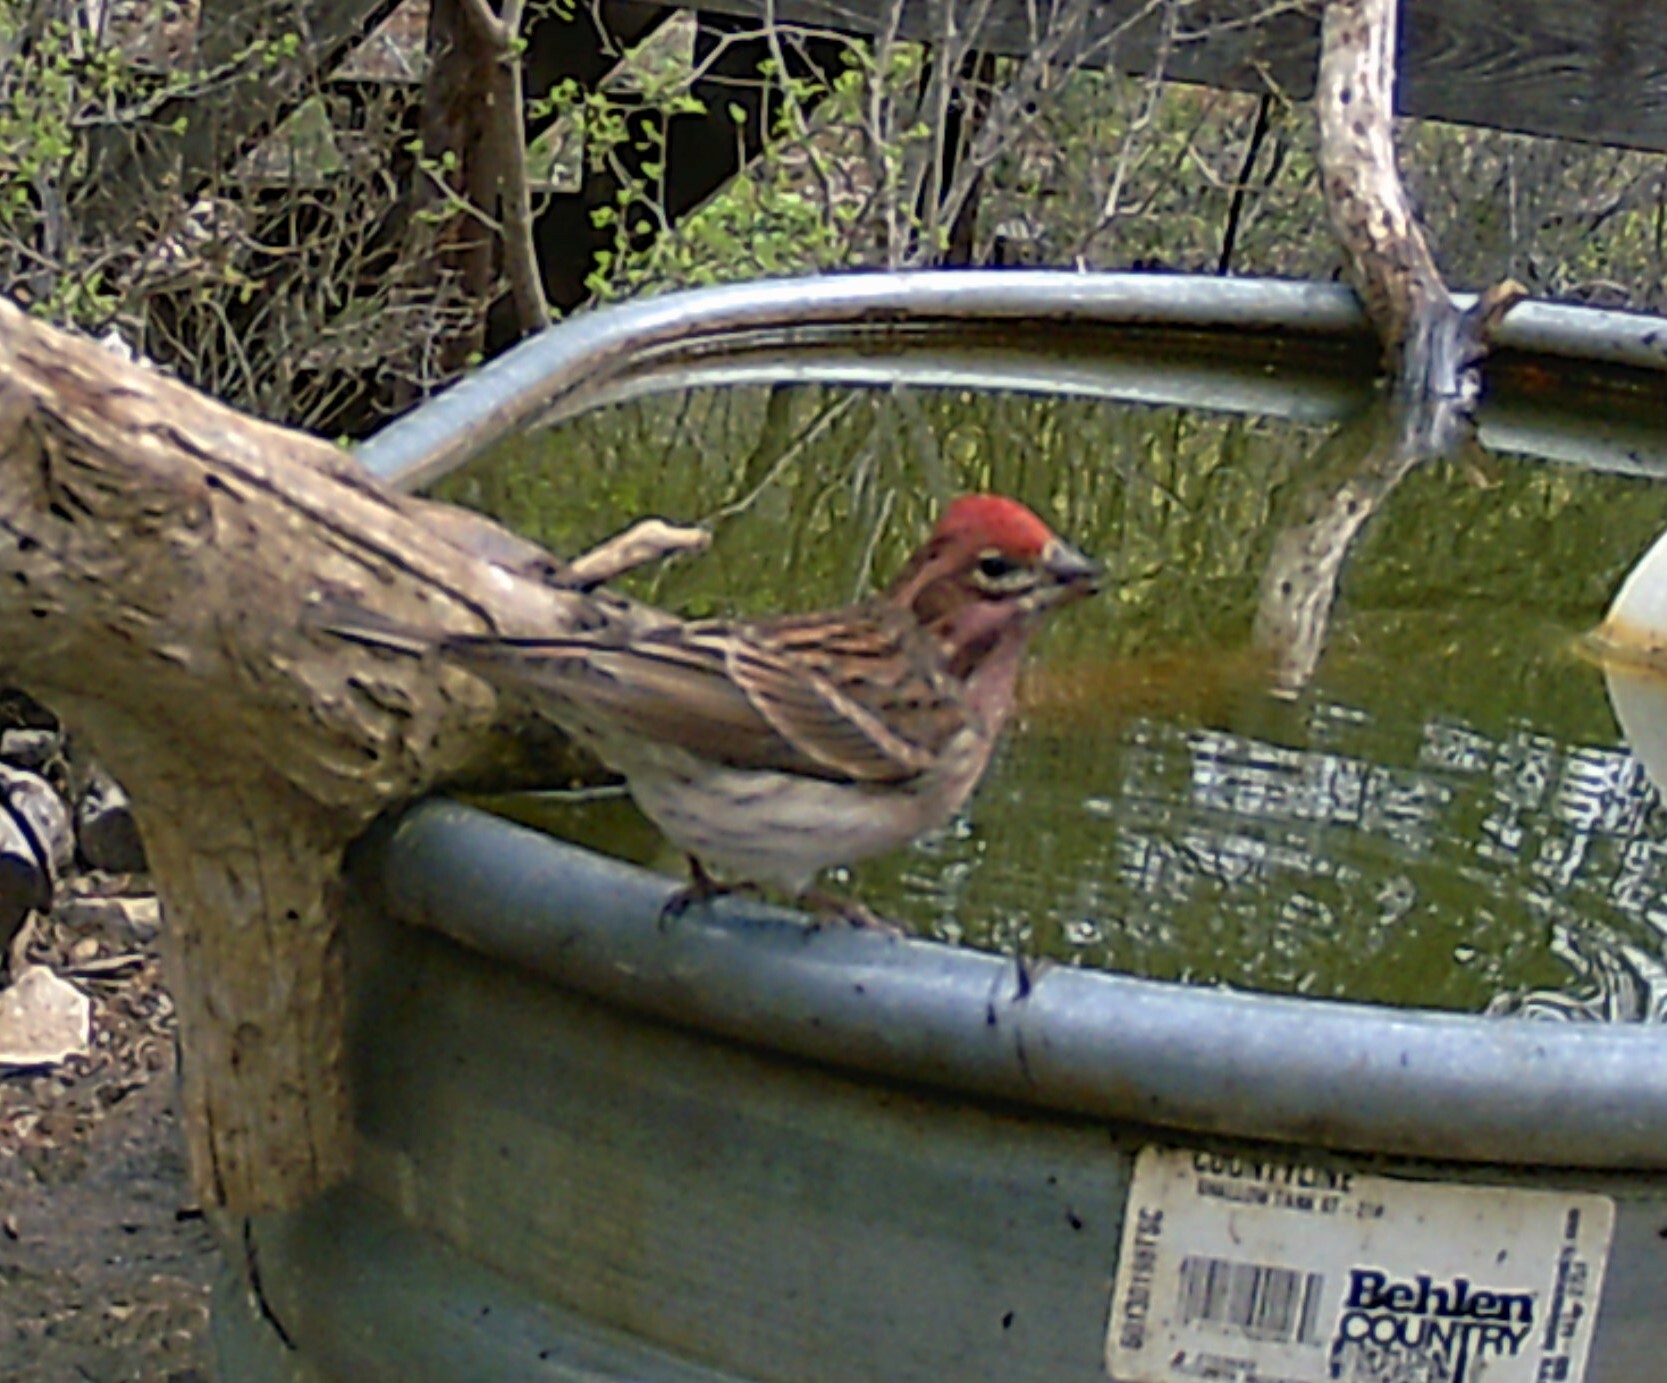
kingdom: Animalia
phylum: Chordata
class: Aves
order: Passeriformes
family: Fringillidae
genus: Haemorhous
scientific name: Haemorhous cassinii
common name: Cassin's finch
